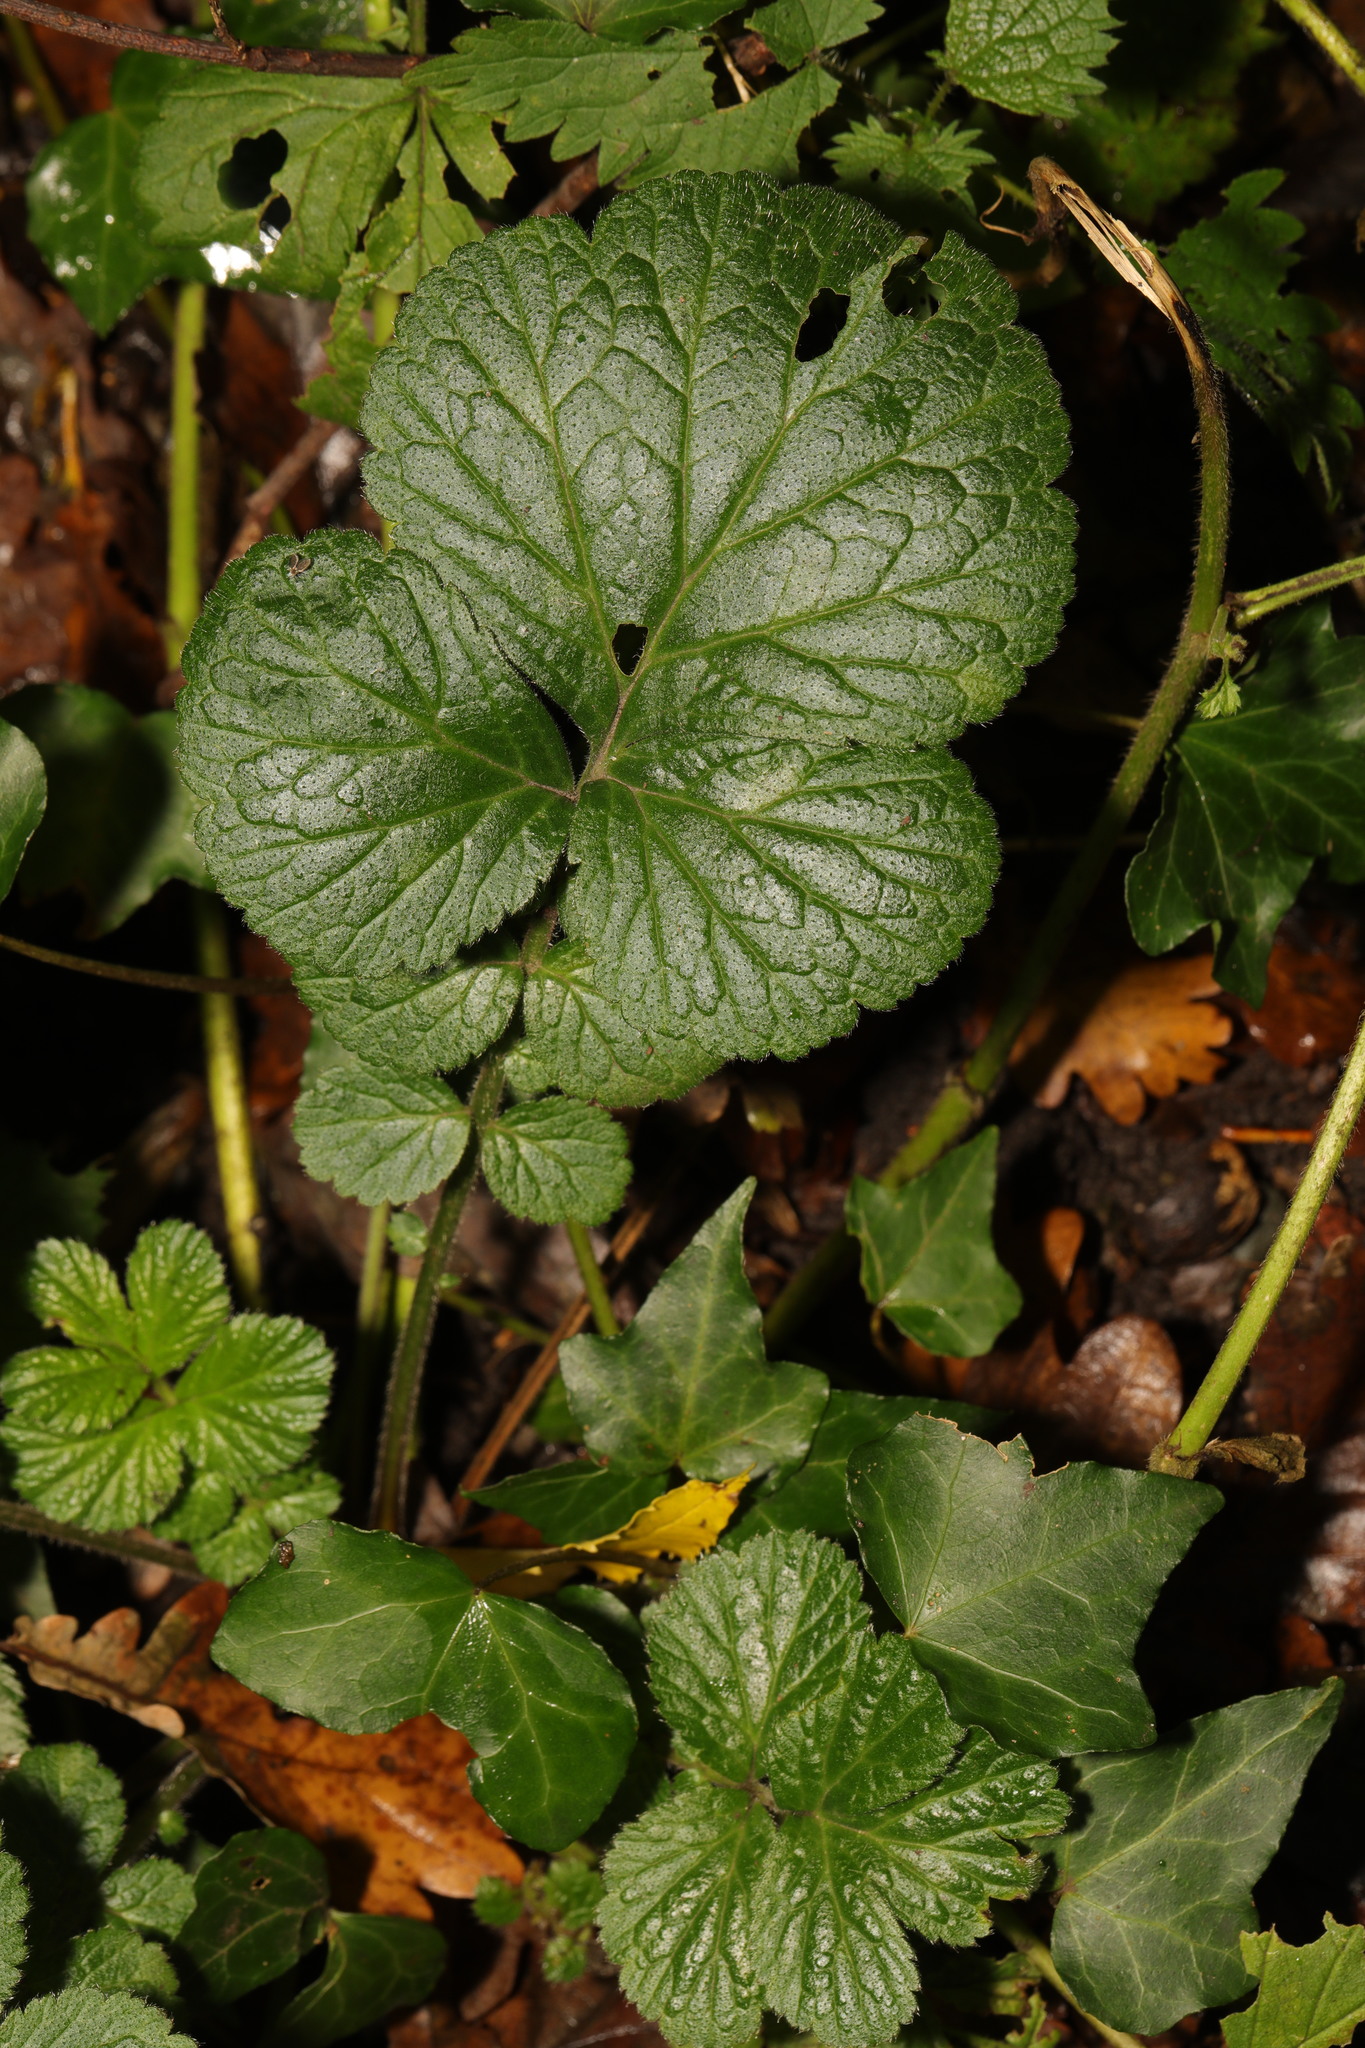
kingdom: Plantae
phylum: Tracheophyta
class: Magnoliopsida
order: Rosales
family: Rosaceae
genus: Geum
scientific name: Geum urbanum
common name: Wood avens
